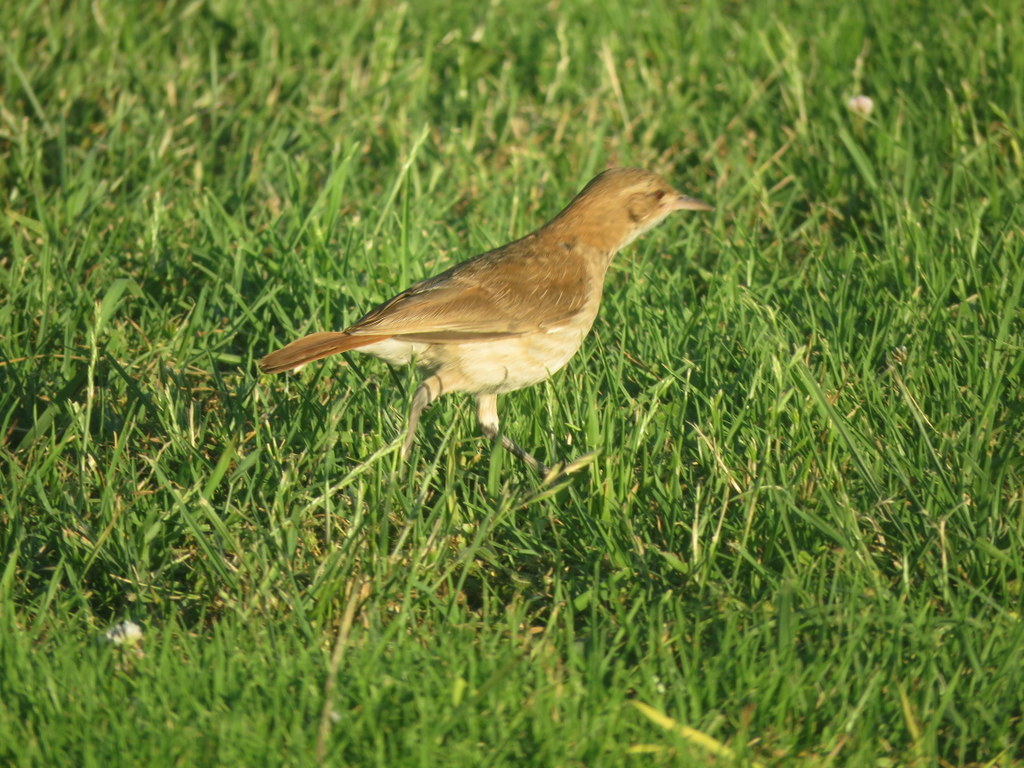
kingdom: Animalia
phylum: Chordata
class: Aves
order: Passeriformes
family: Furnariidae
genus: Furnarius
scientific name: Furnarius rufus
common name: Rufous hornero
